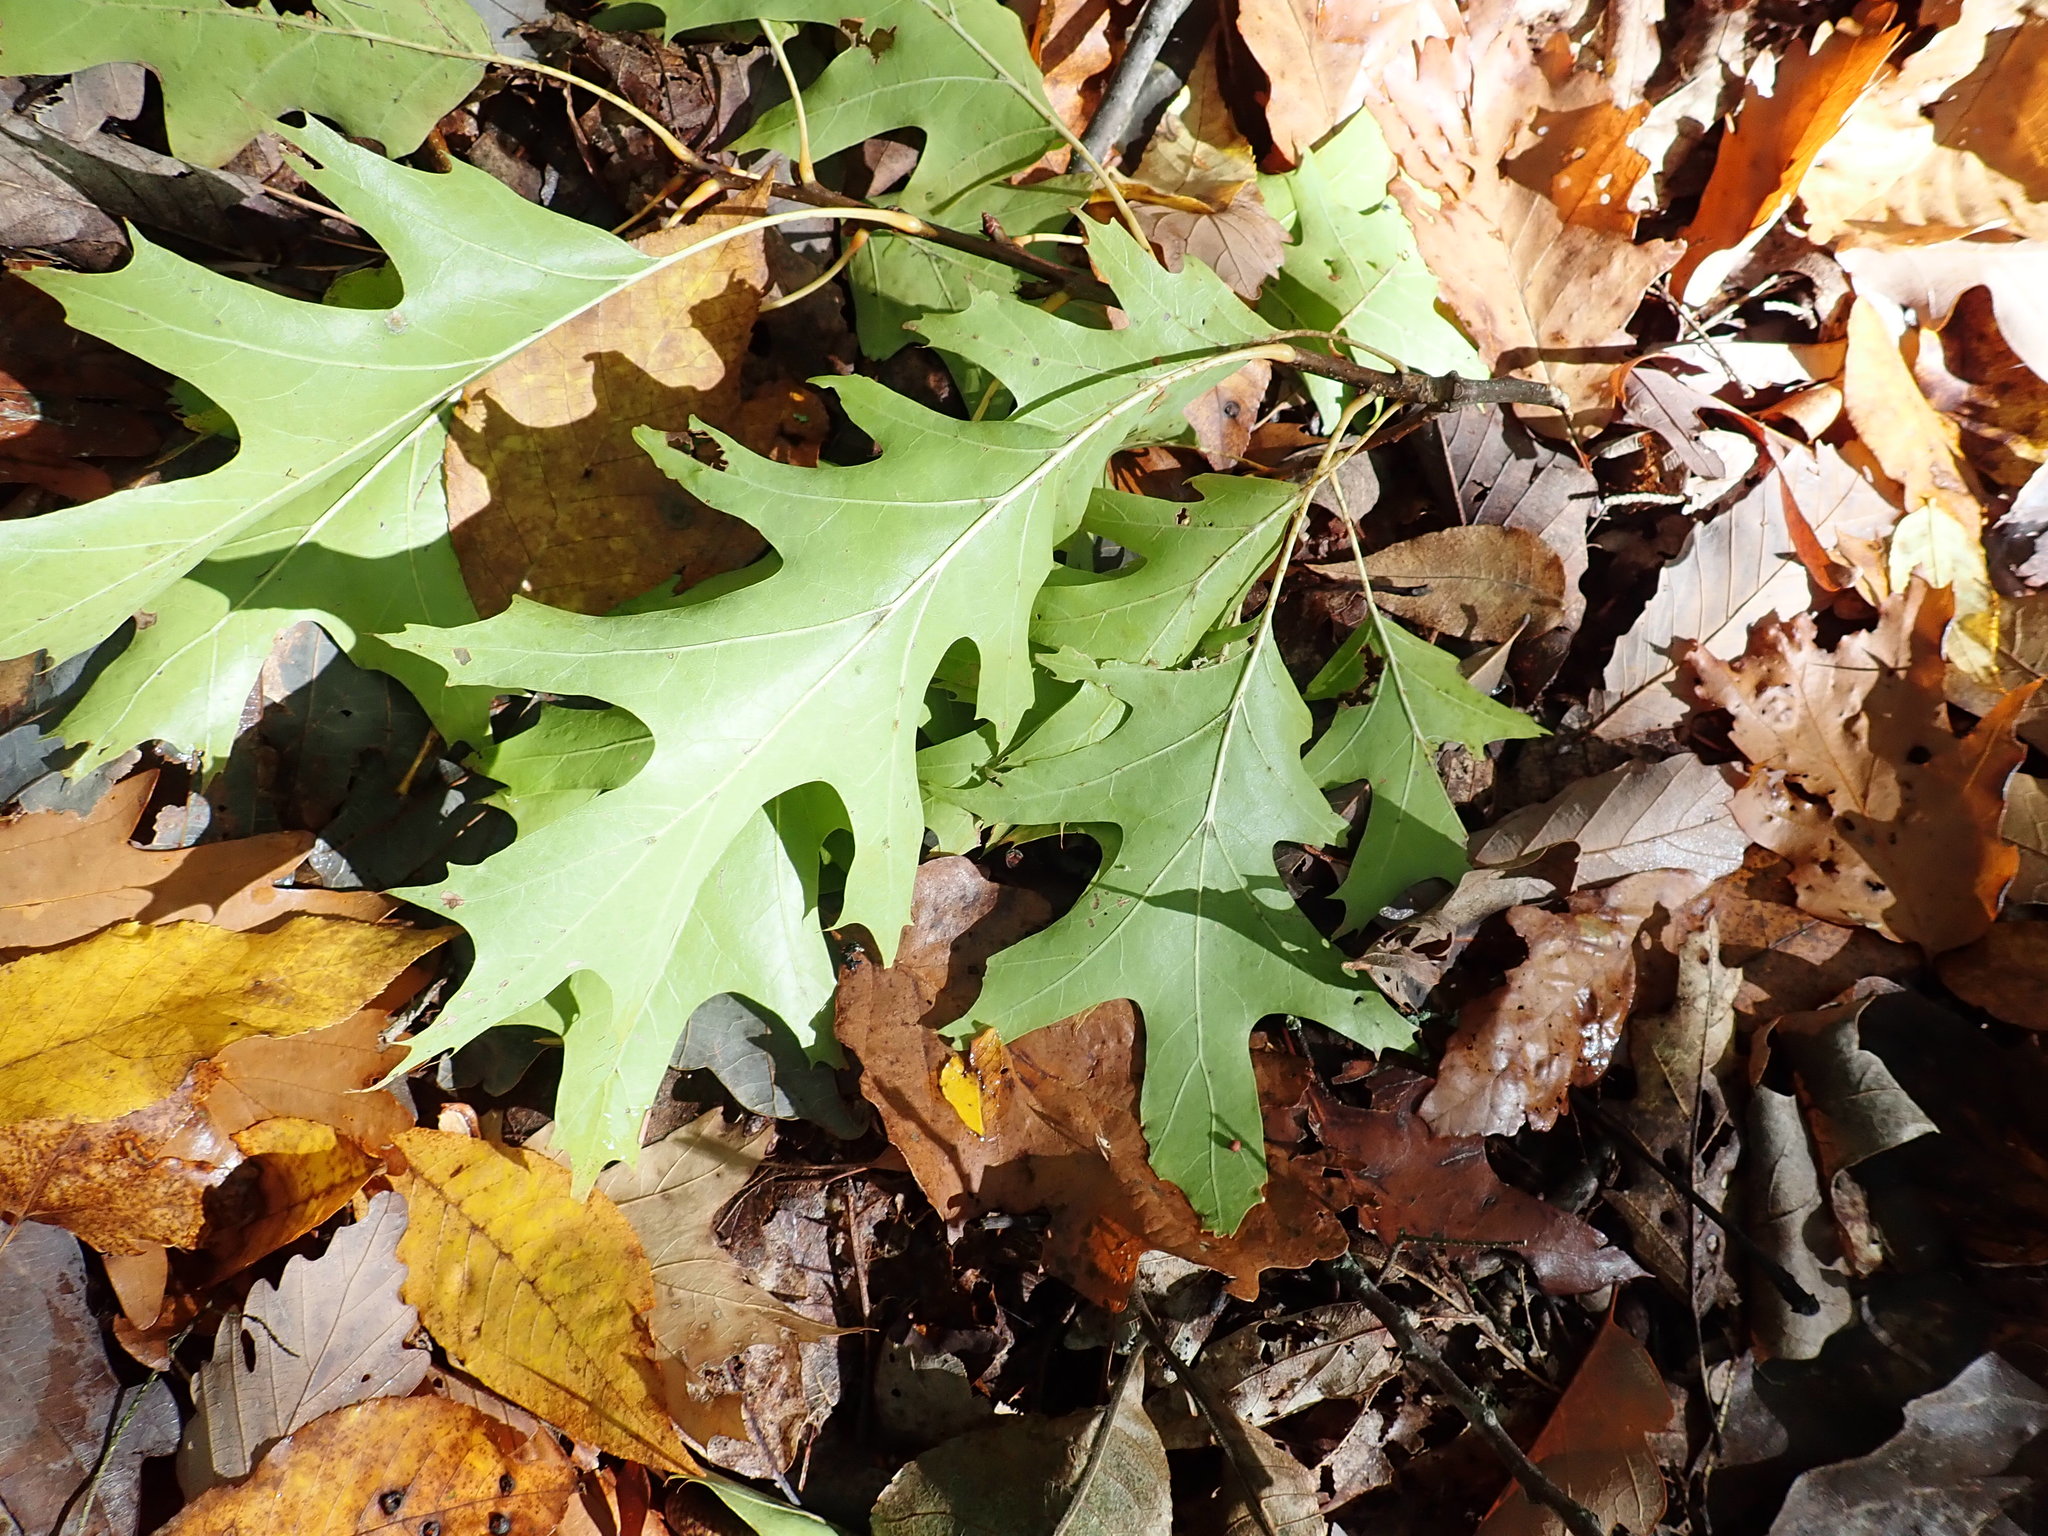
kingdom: Plantae
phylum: Tracheophyta
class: Magnoliopsida
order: Fagales
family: Fagaceae
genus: Quercus
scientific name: Quercus rubra
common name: Red oak
